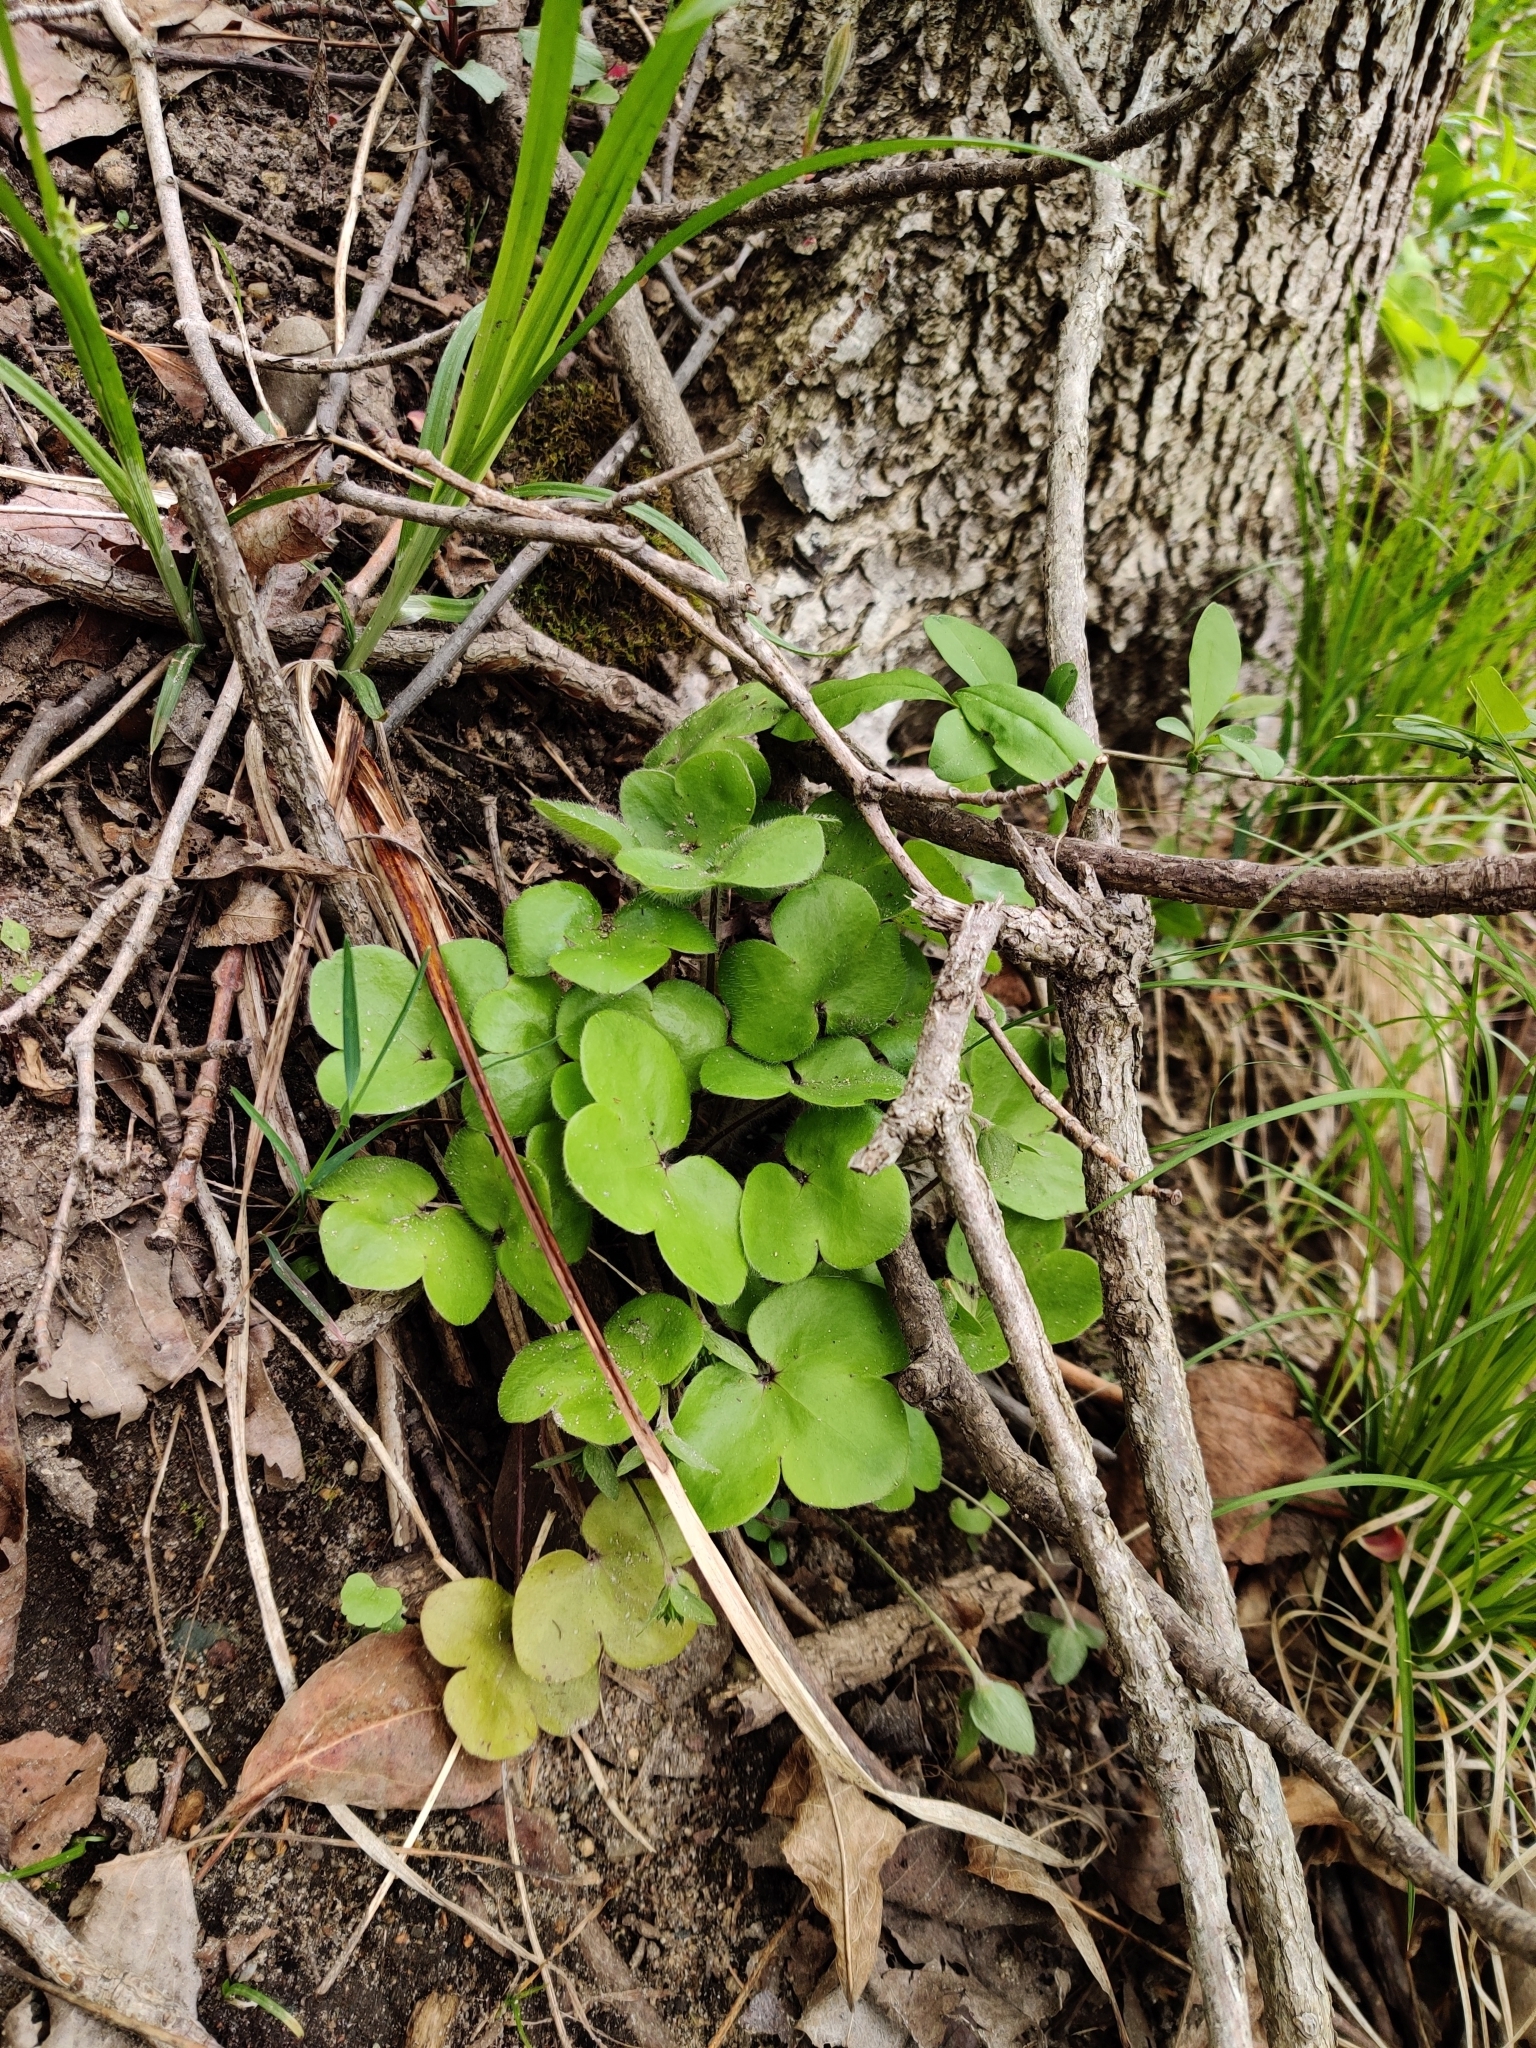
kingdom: Plantae
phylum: Tracheophyta
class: Magnoliopsida
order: Ranunculales
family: Ranunculaceae
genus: Hepatica
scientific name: Hepatica americana
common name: American hepatica
